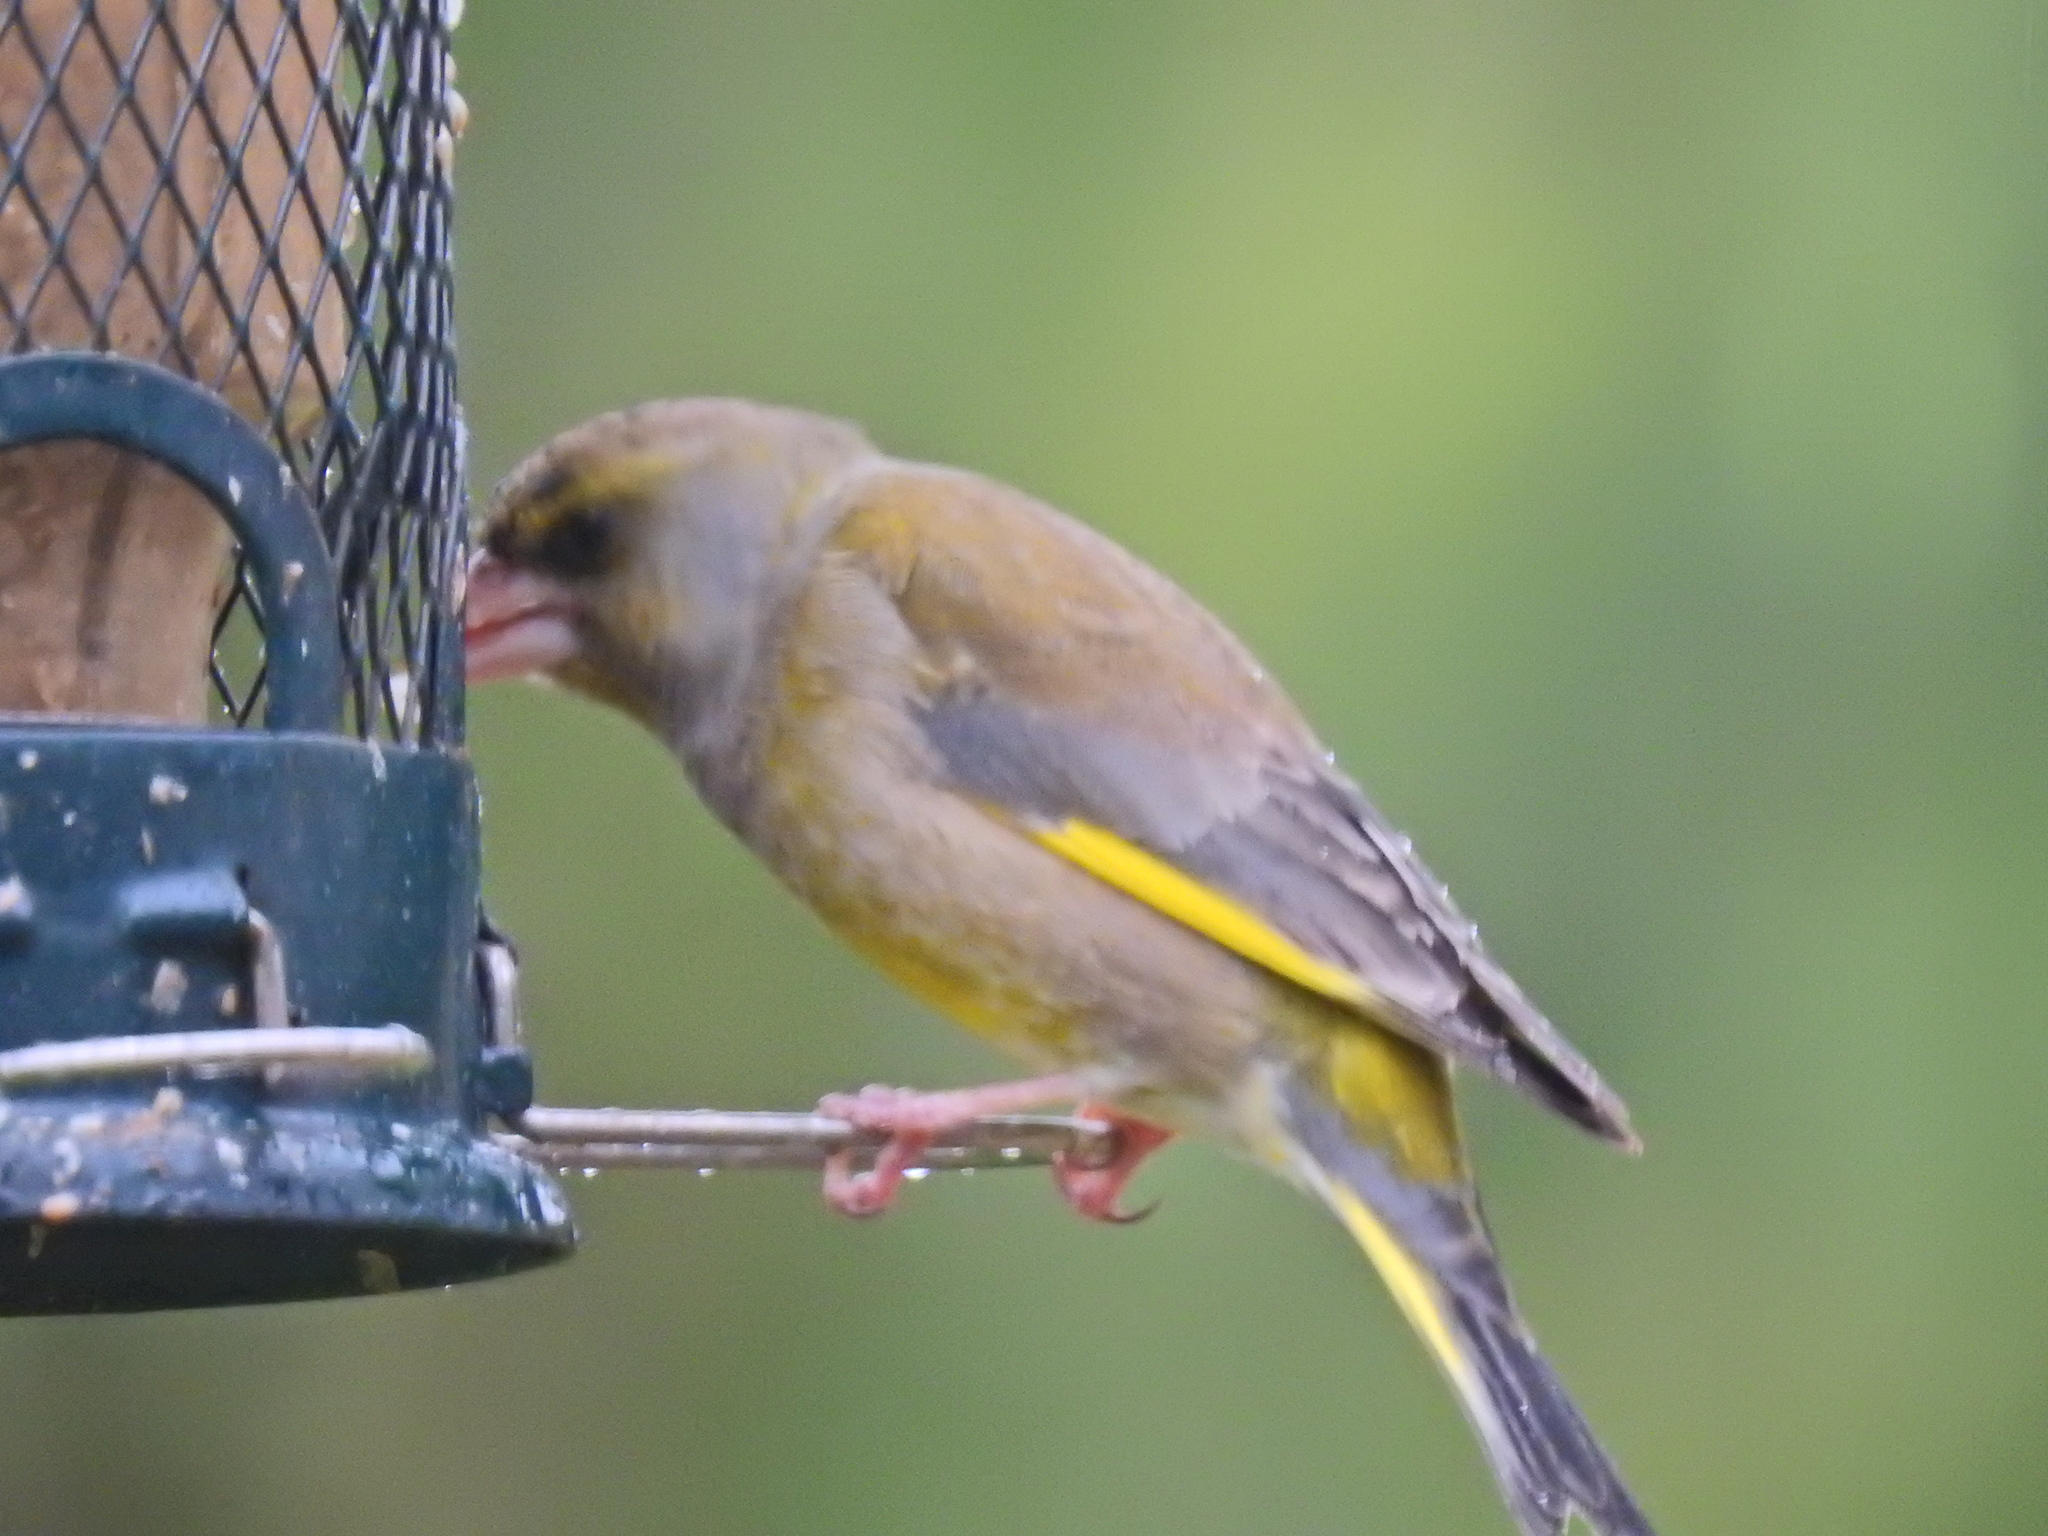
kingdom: Plantae
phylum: Tracheophyta
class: Liliopsida
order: Poales
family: Poaceae
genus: Chloris
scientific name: Chloris chloris
